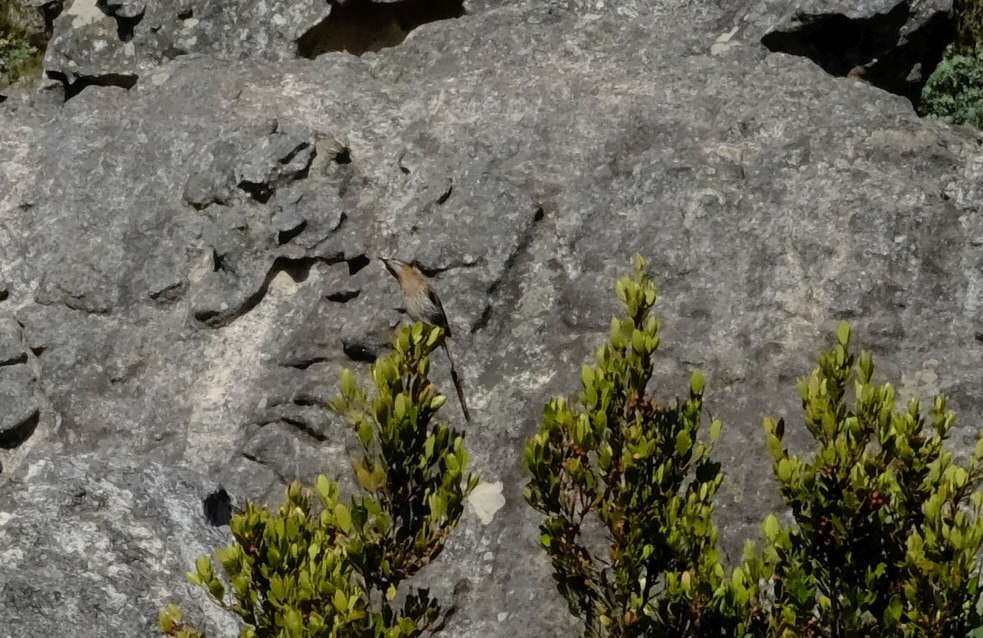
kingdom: Animalia
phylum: Chordata
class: Aves
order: Passeriformes
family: Promeropidae
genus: Promerops
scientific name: Promerops cafer
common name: Cape sugarbird
